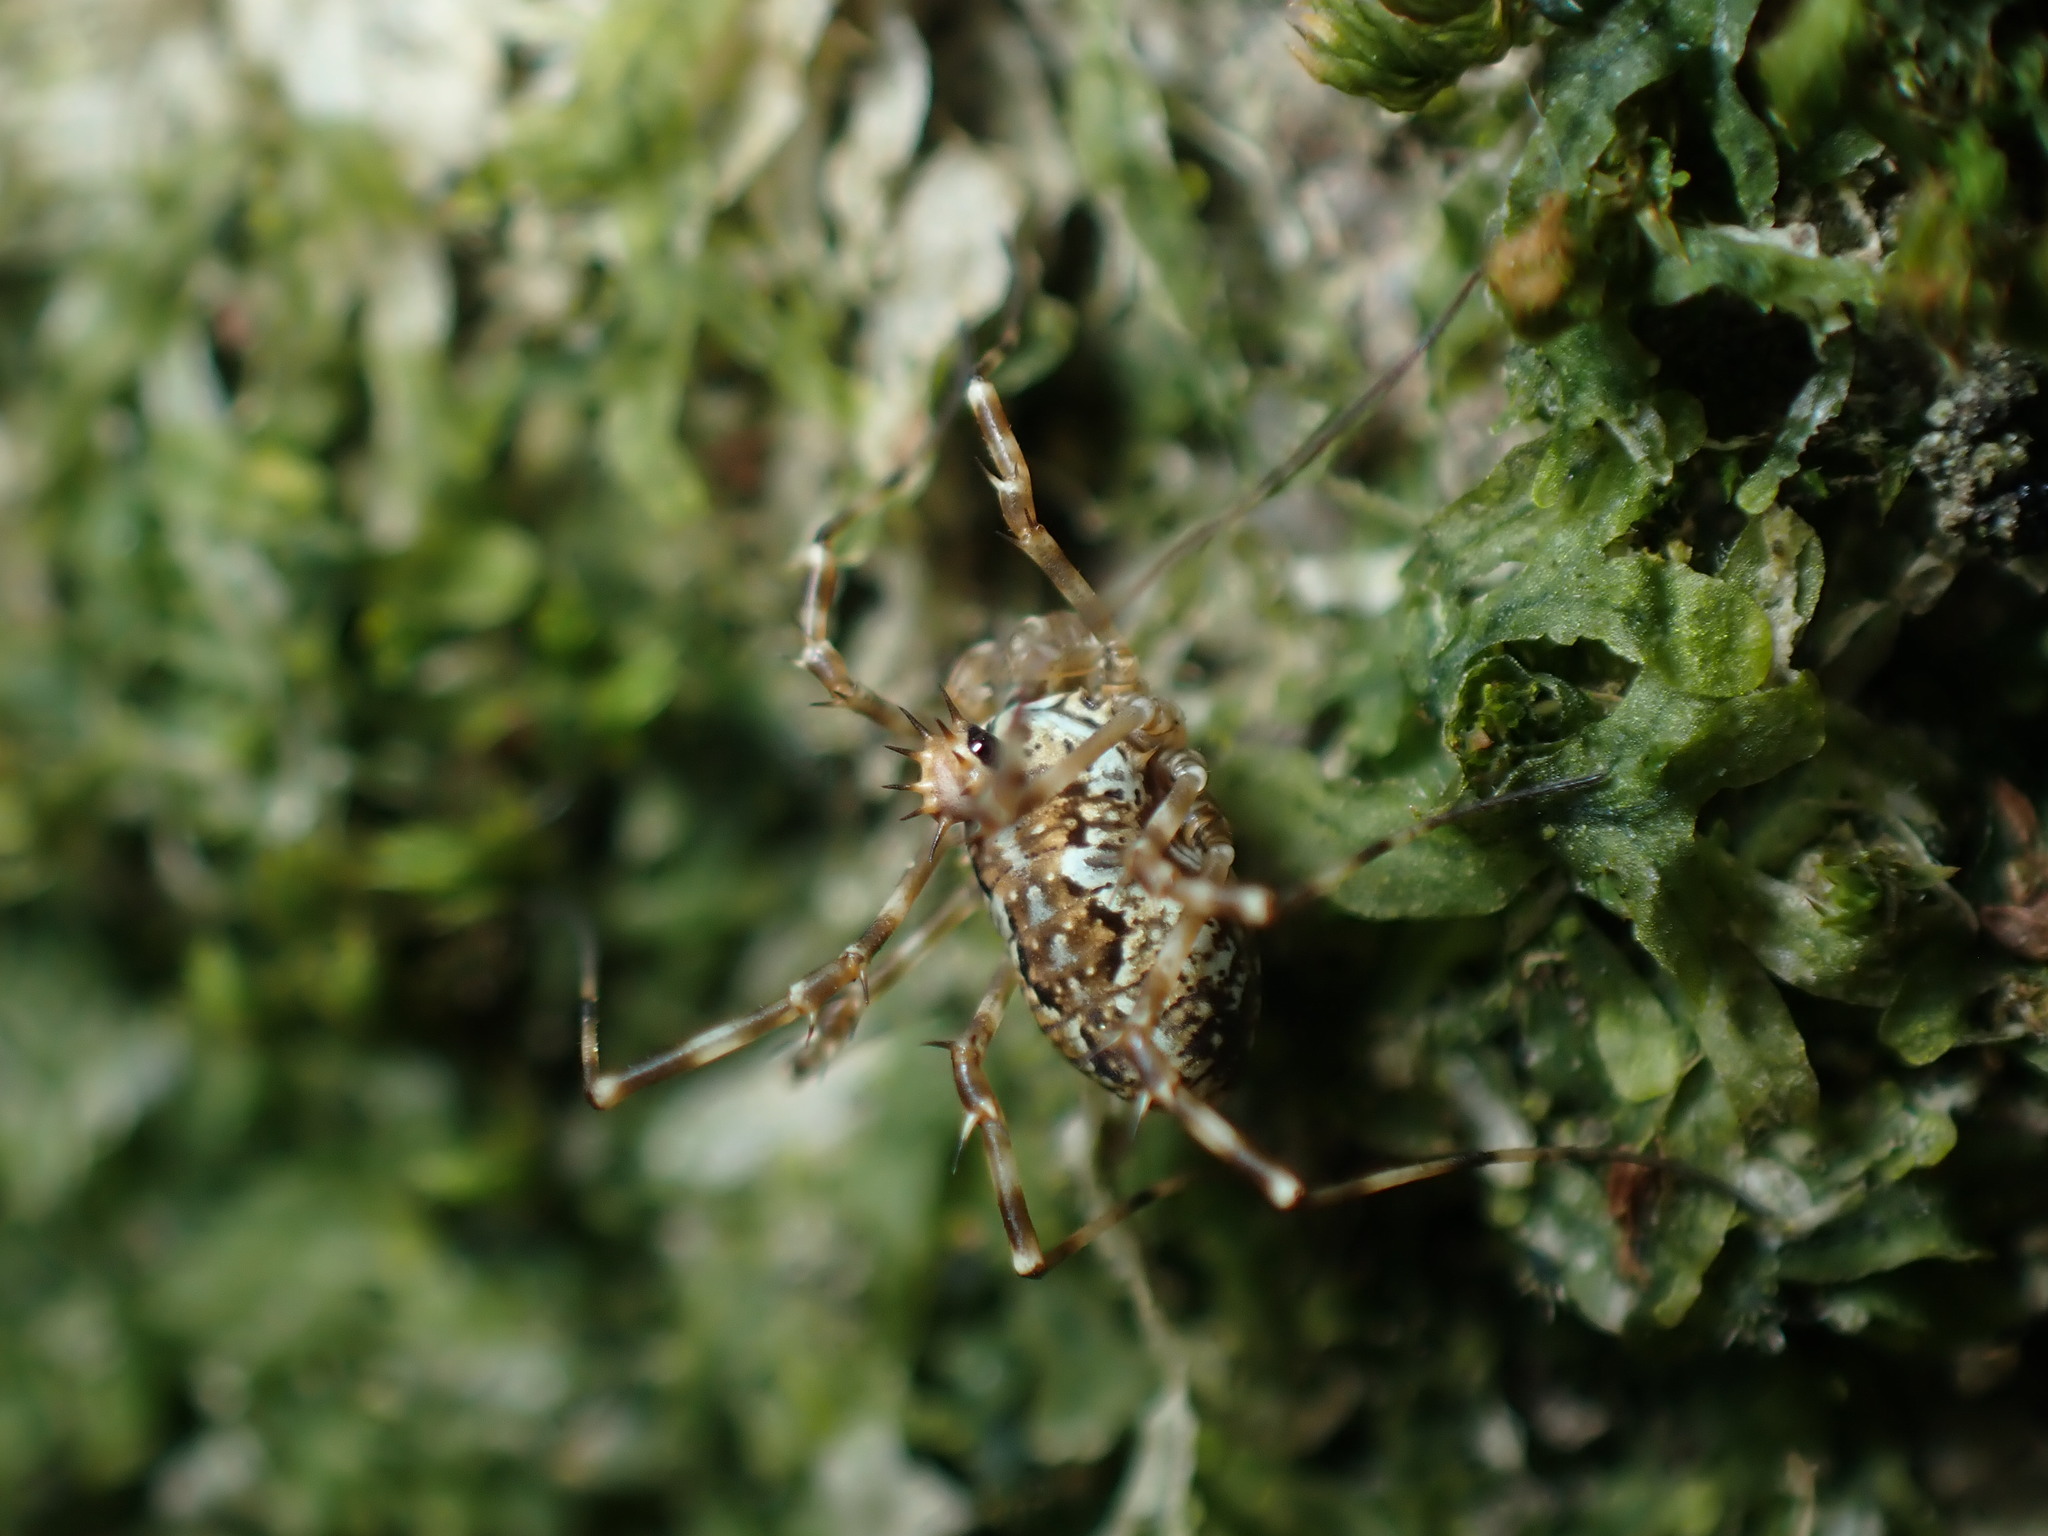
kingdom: Animalia
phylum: Arthropoda
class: Arachnida
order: Opiliones
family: Phalangiidae
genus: Megabunus
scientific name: Megabunus diadema
